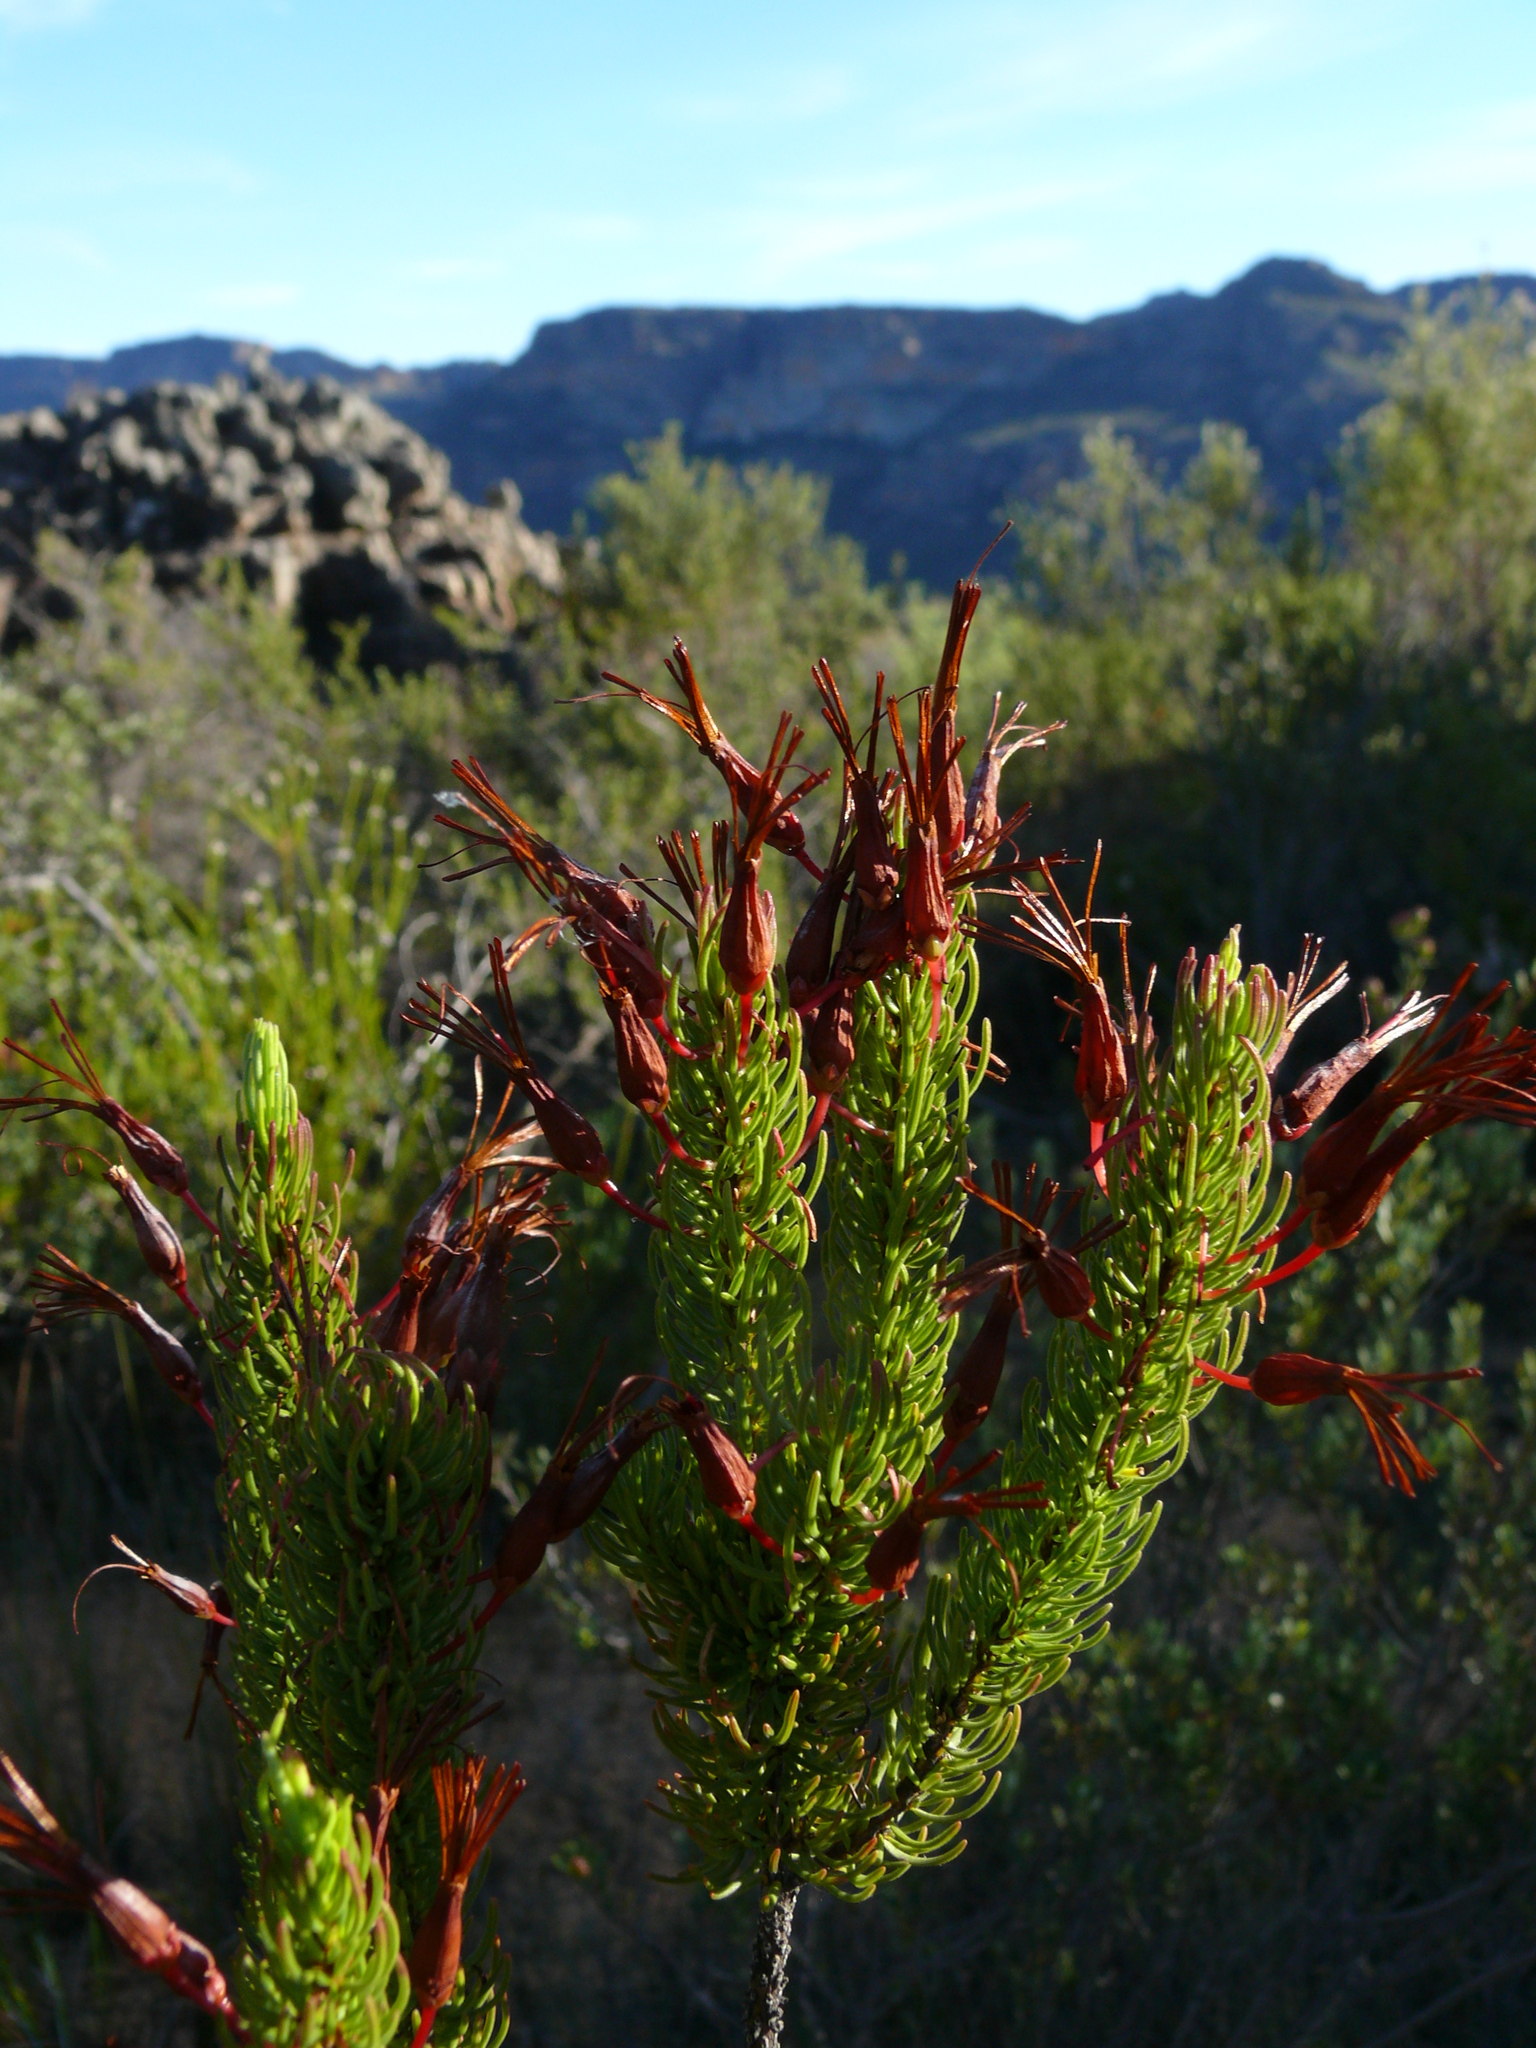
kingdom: Plantae
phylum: Tracheophyta
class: Magnoliopsida
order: Ericales
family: Ericaceae
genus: Erica
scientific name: Erica plukenetii
